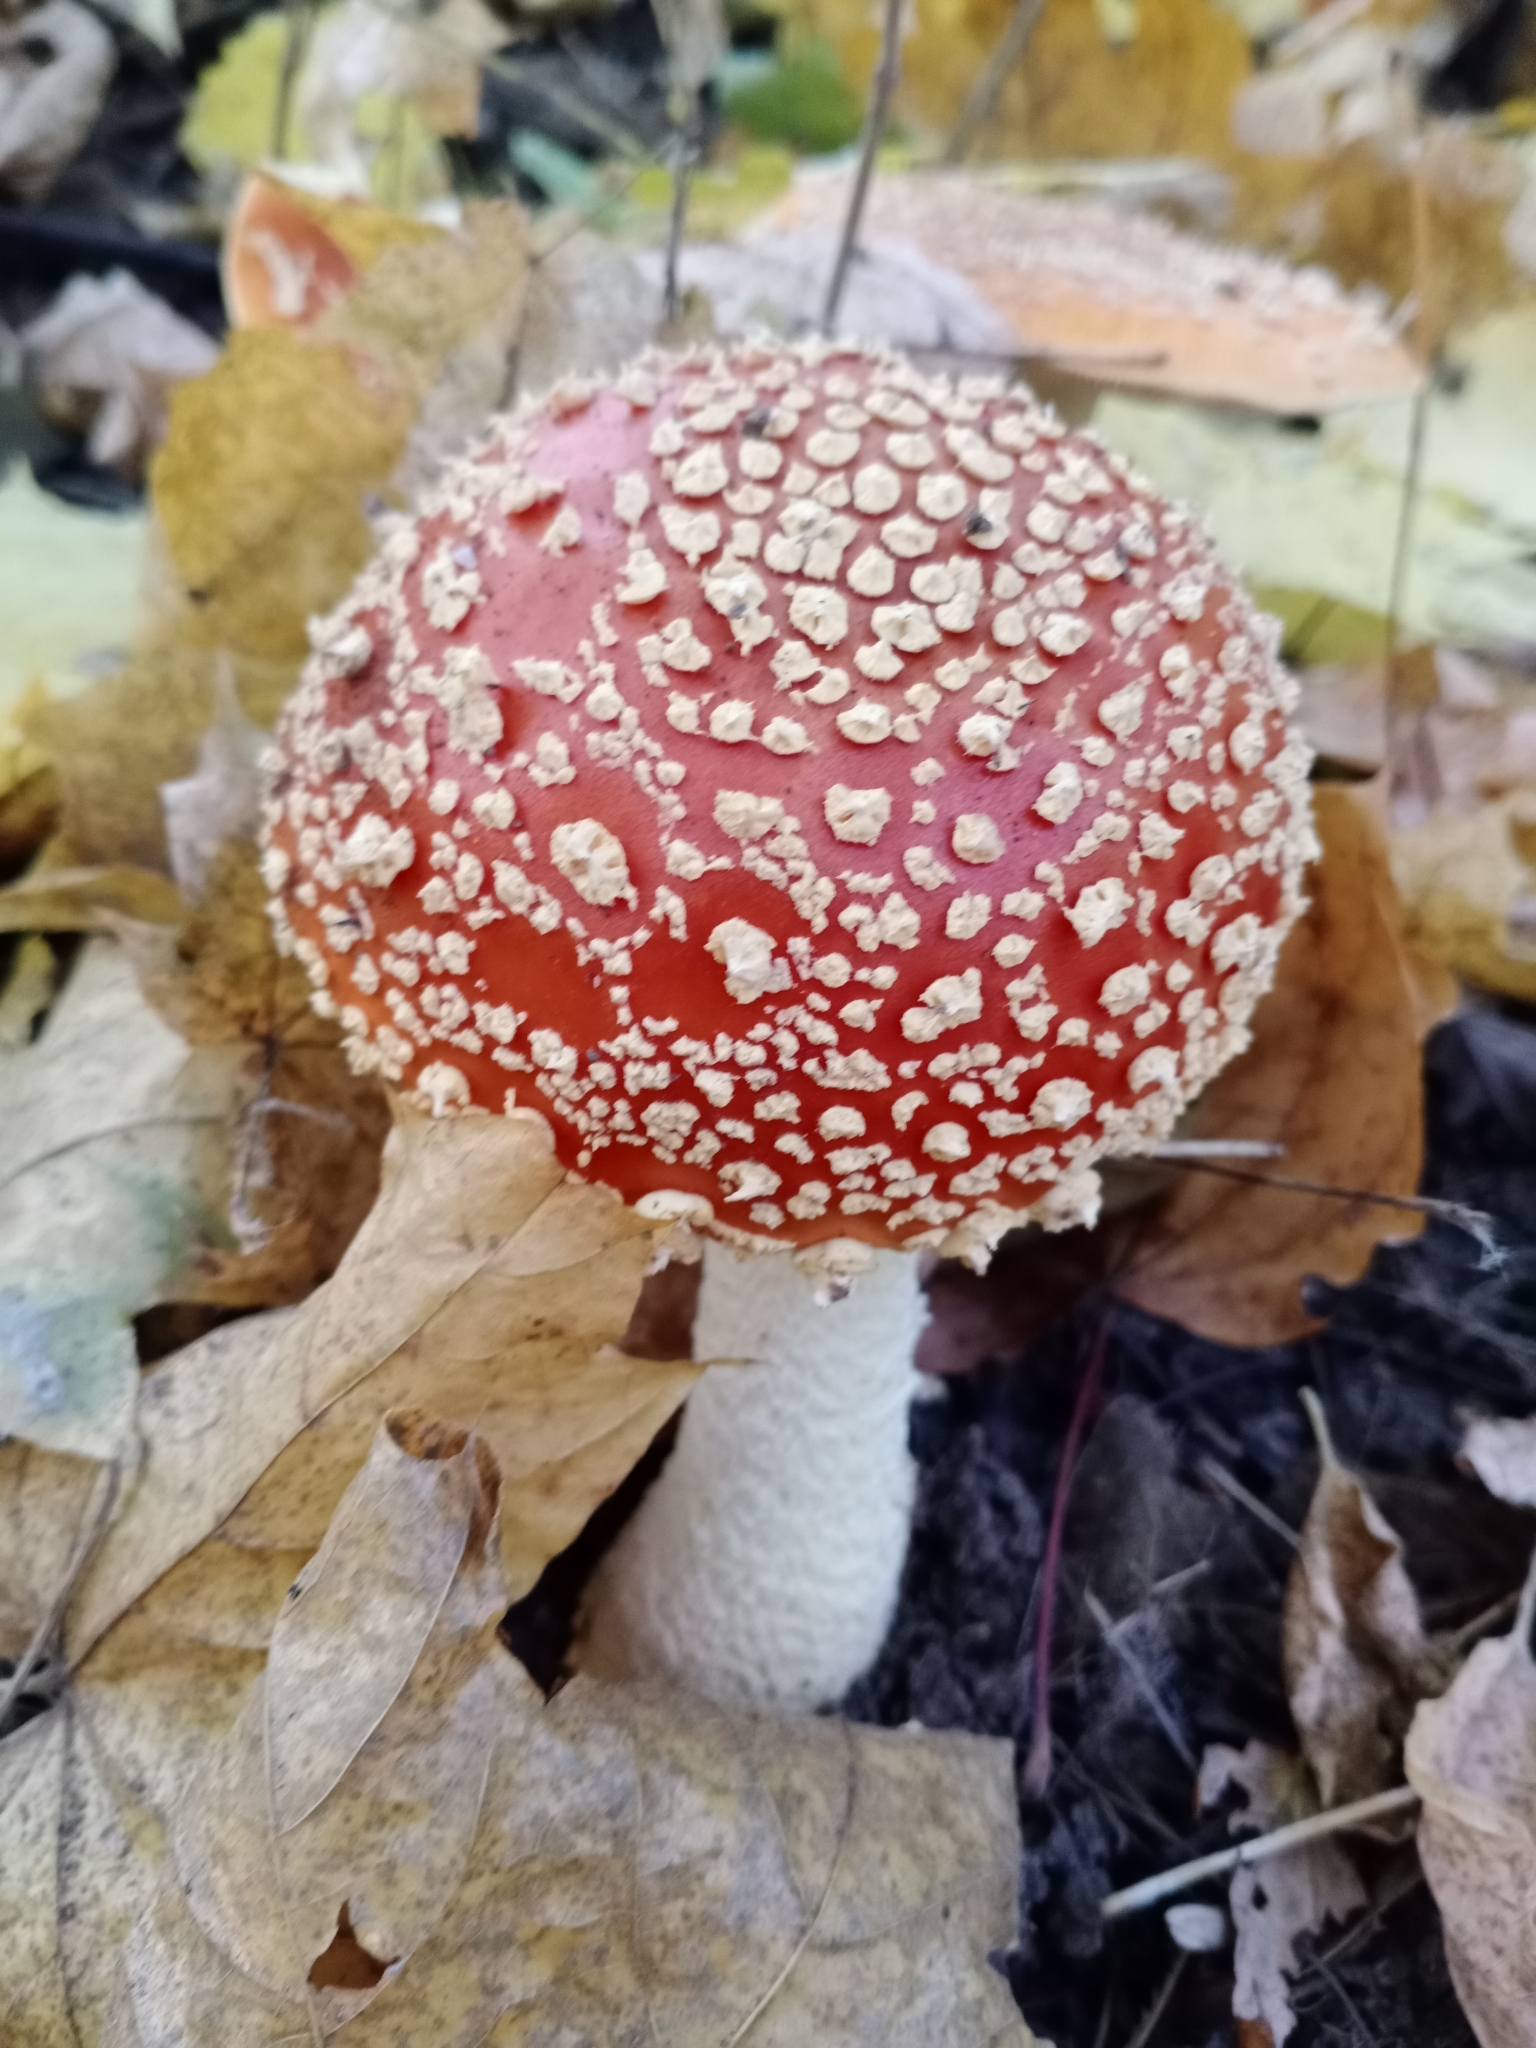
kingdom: Fungi
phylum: Basidiomycota
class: Agaricomycetes
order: Agaricales
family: Amanitaceae
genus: Amanita
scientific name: Amanita muscaria
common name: Fly agaric
